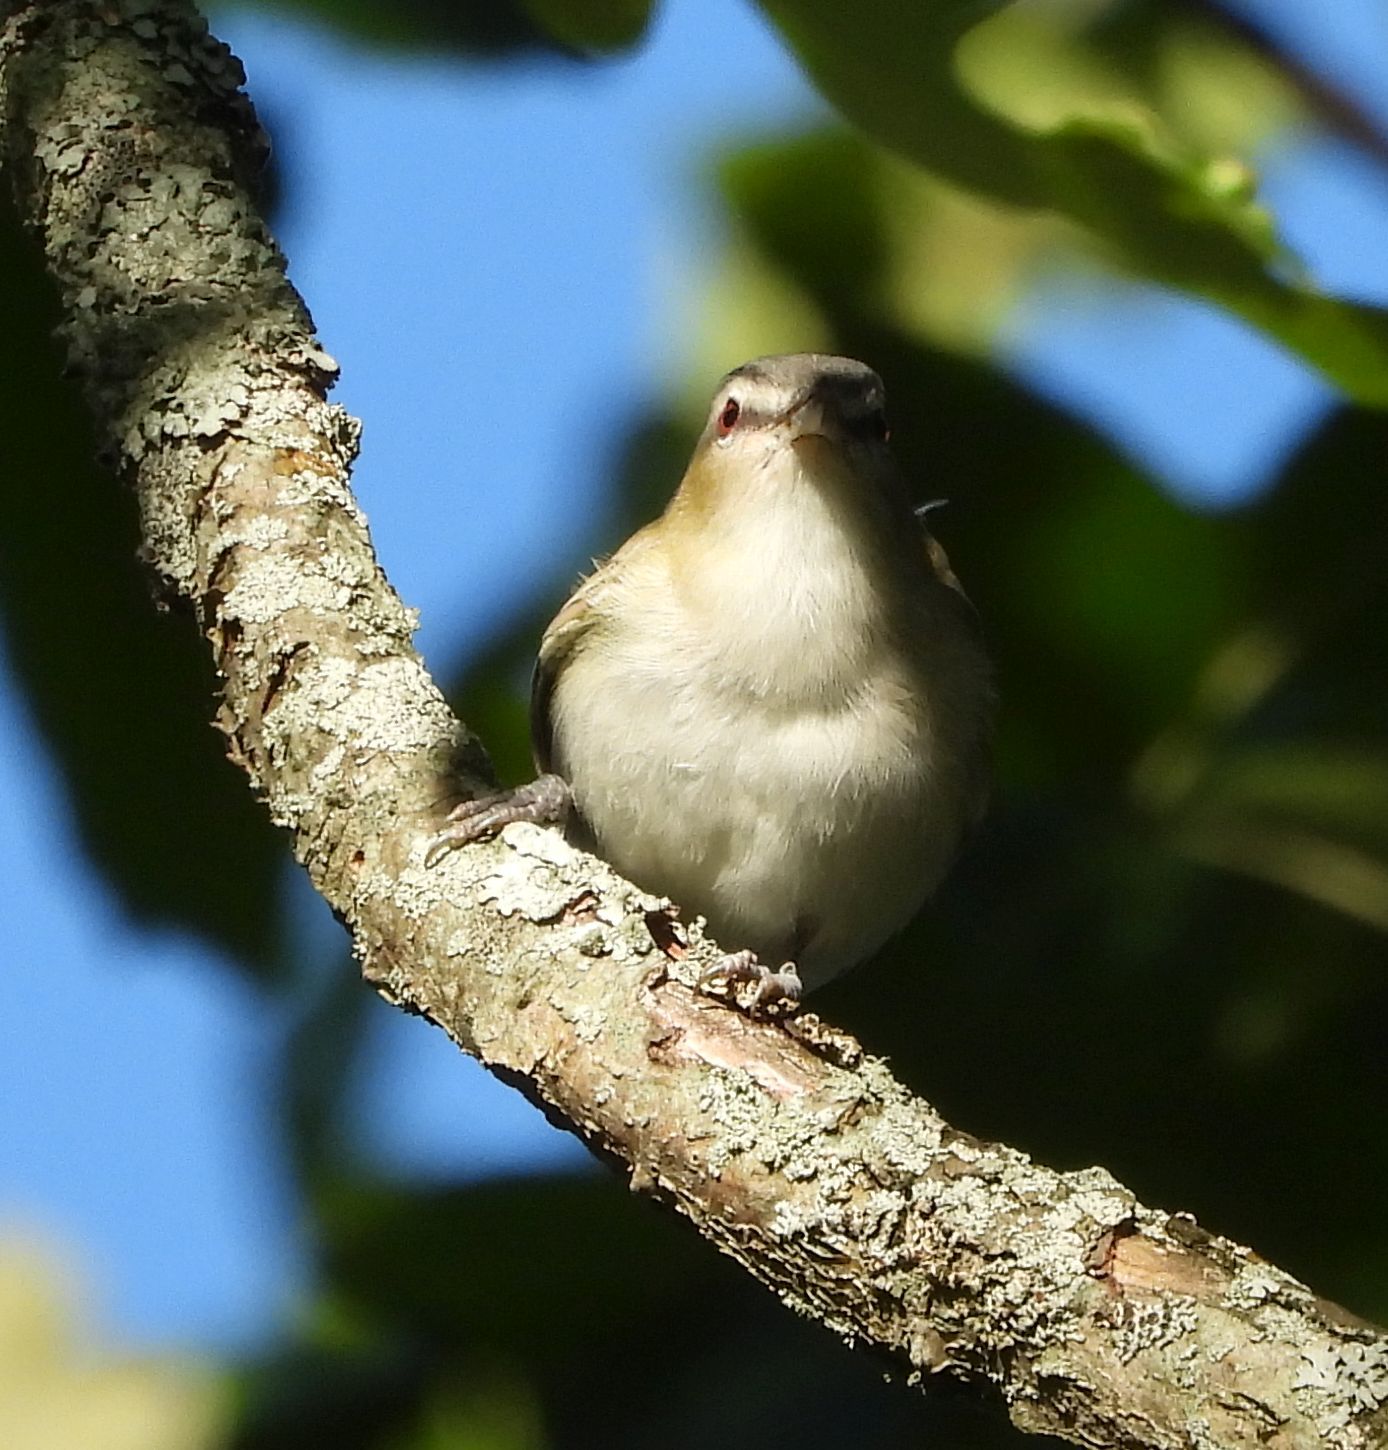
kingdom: Animalia
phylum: Chordata
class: Aves
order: Passeriformes
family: Vireonidae
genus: Vireo
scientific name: Vireo olivaceus
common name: Red-eyed vireo
